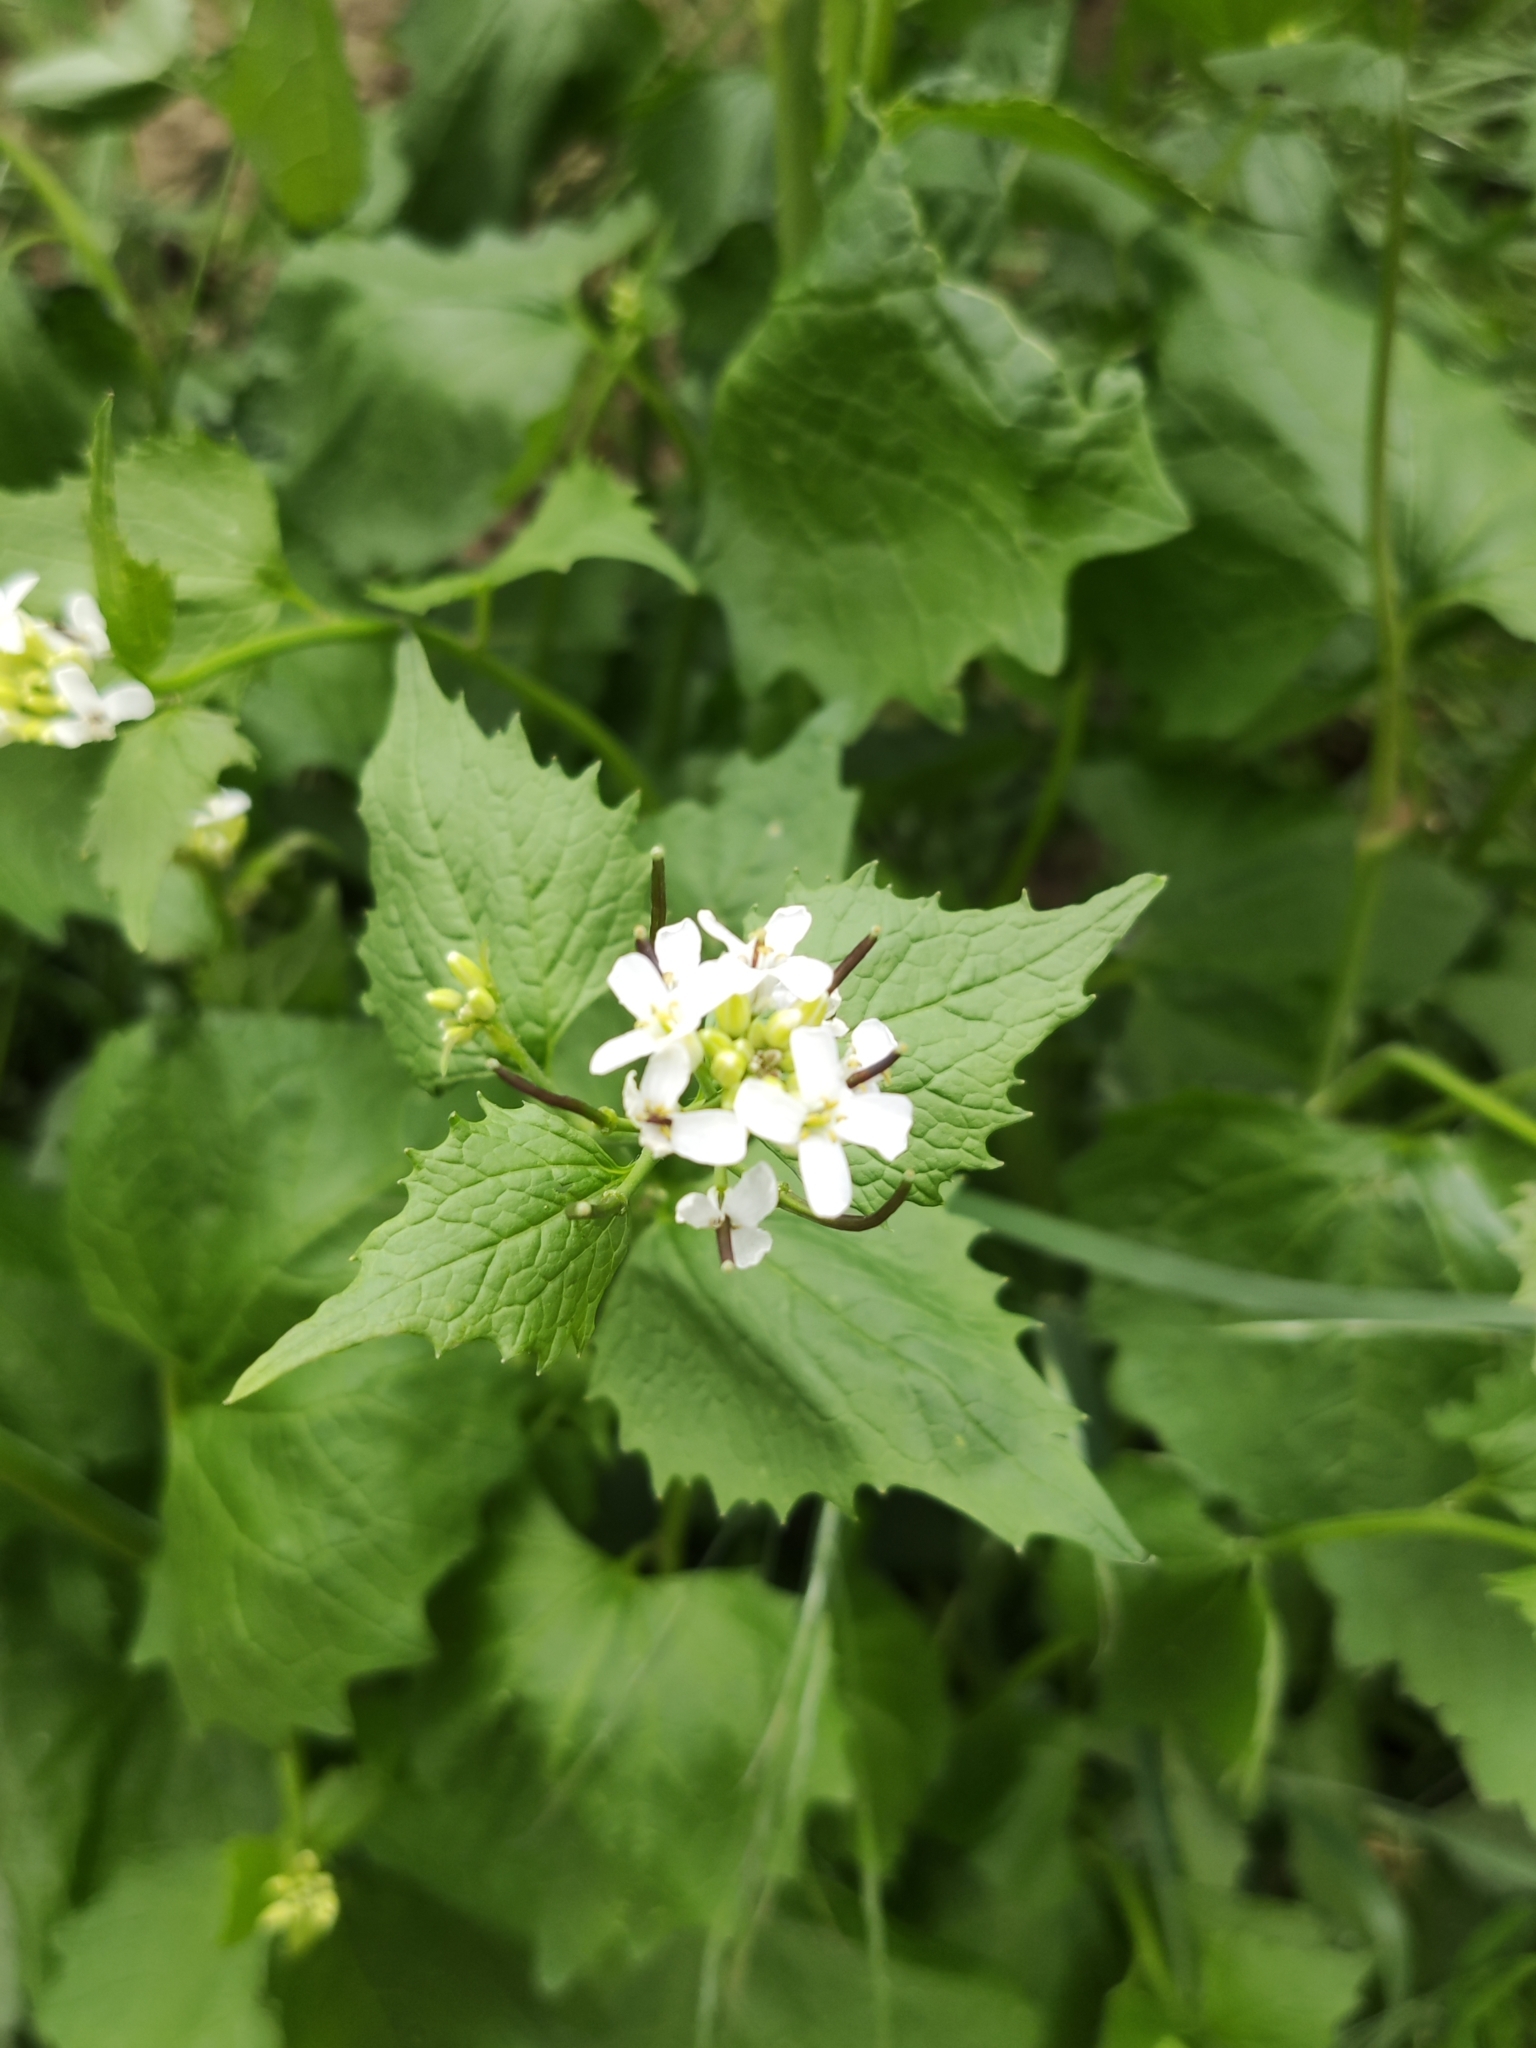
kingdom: Plantae
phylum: Tracheophyta
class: Magnoliopsida
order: Brassicales
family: Brassicaceae
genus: Alliaria
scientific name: Alliaria petiolata
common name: Garlic mustard
